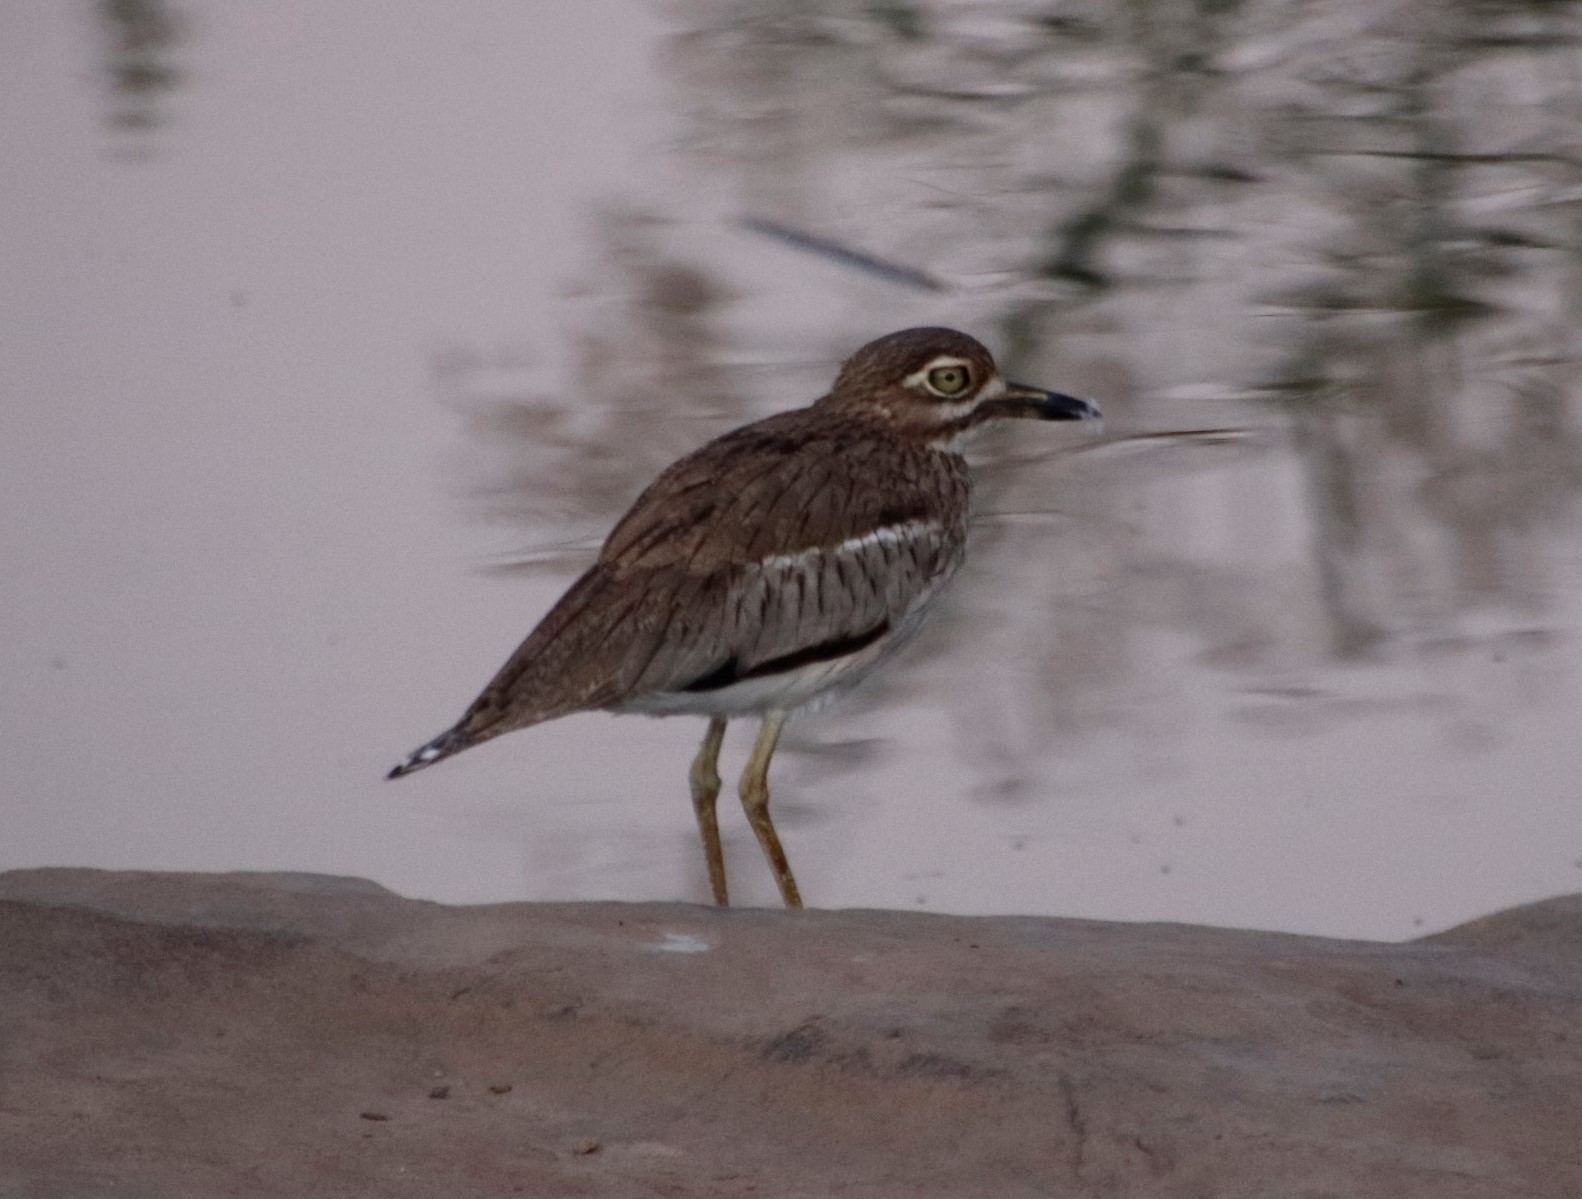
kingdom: Animalia
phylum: Chordata
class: Aves
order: Charadriiformes
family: Burhinidae
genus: Burhinus
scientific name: Burhinus vermiculatus
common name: Water thick-knee
